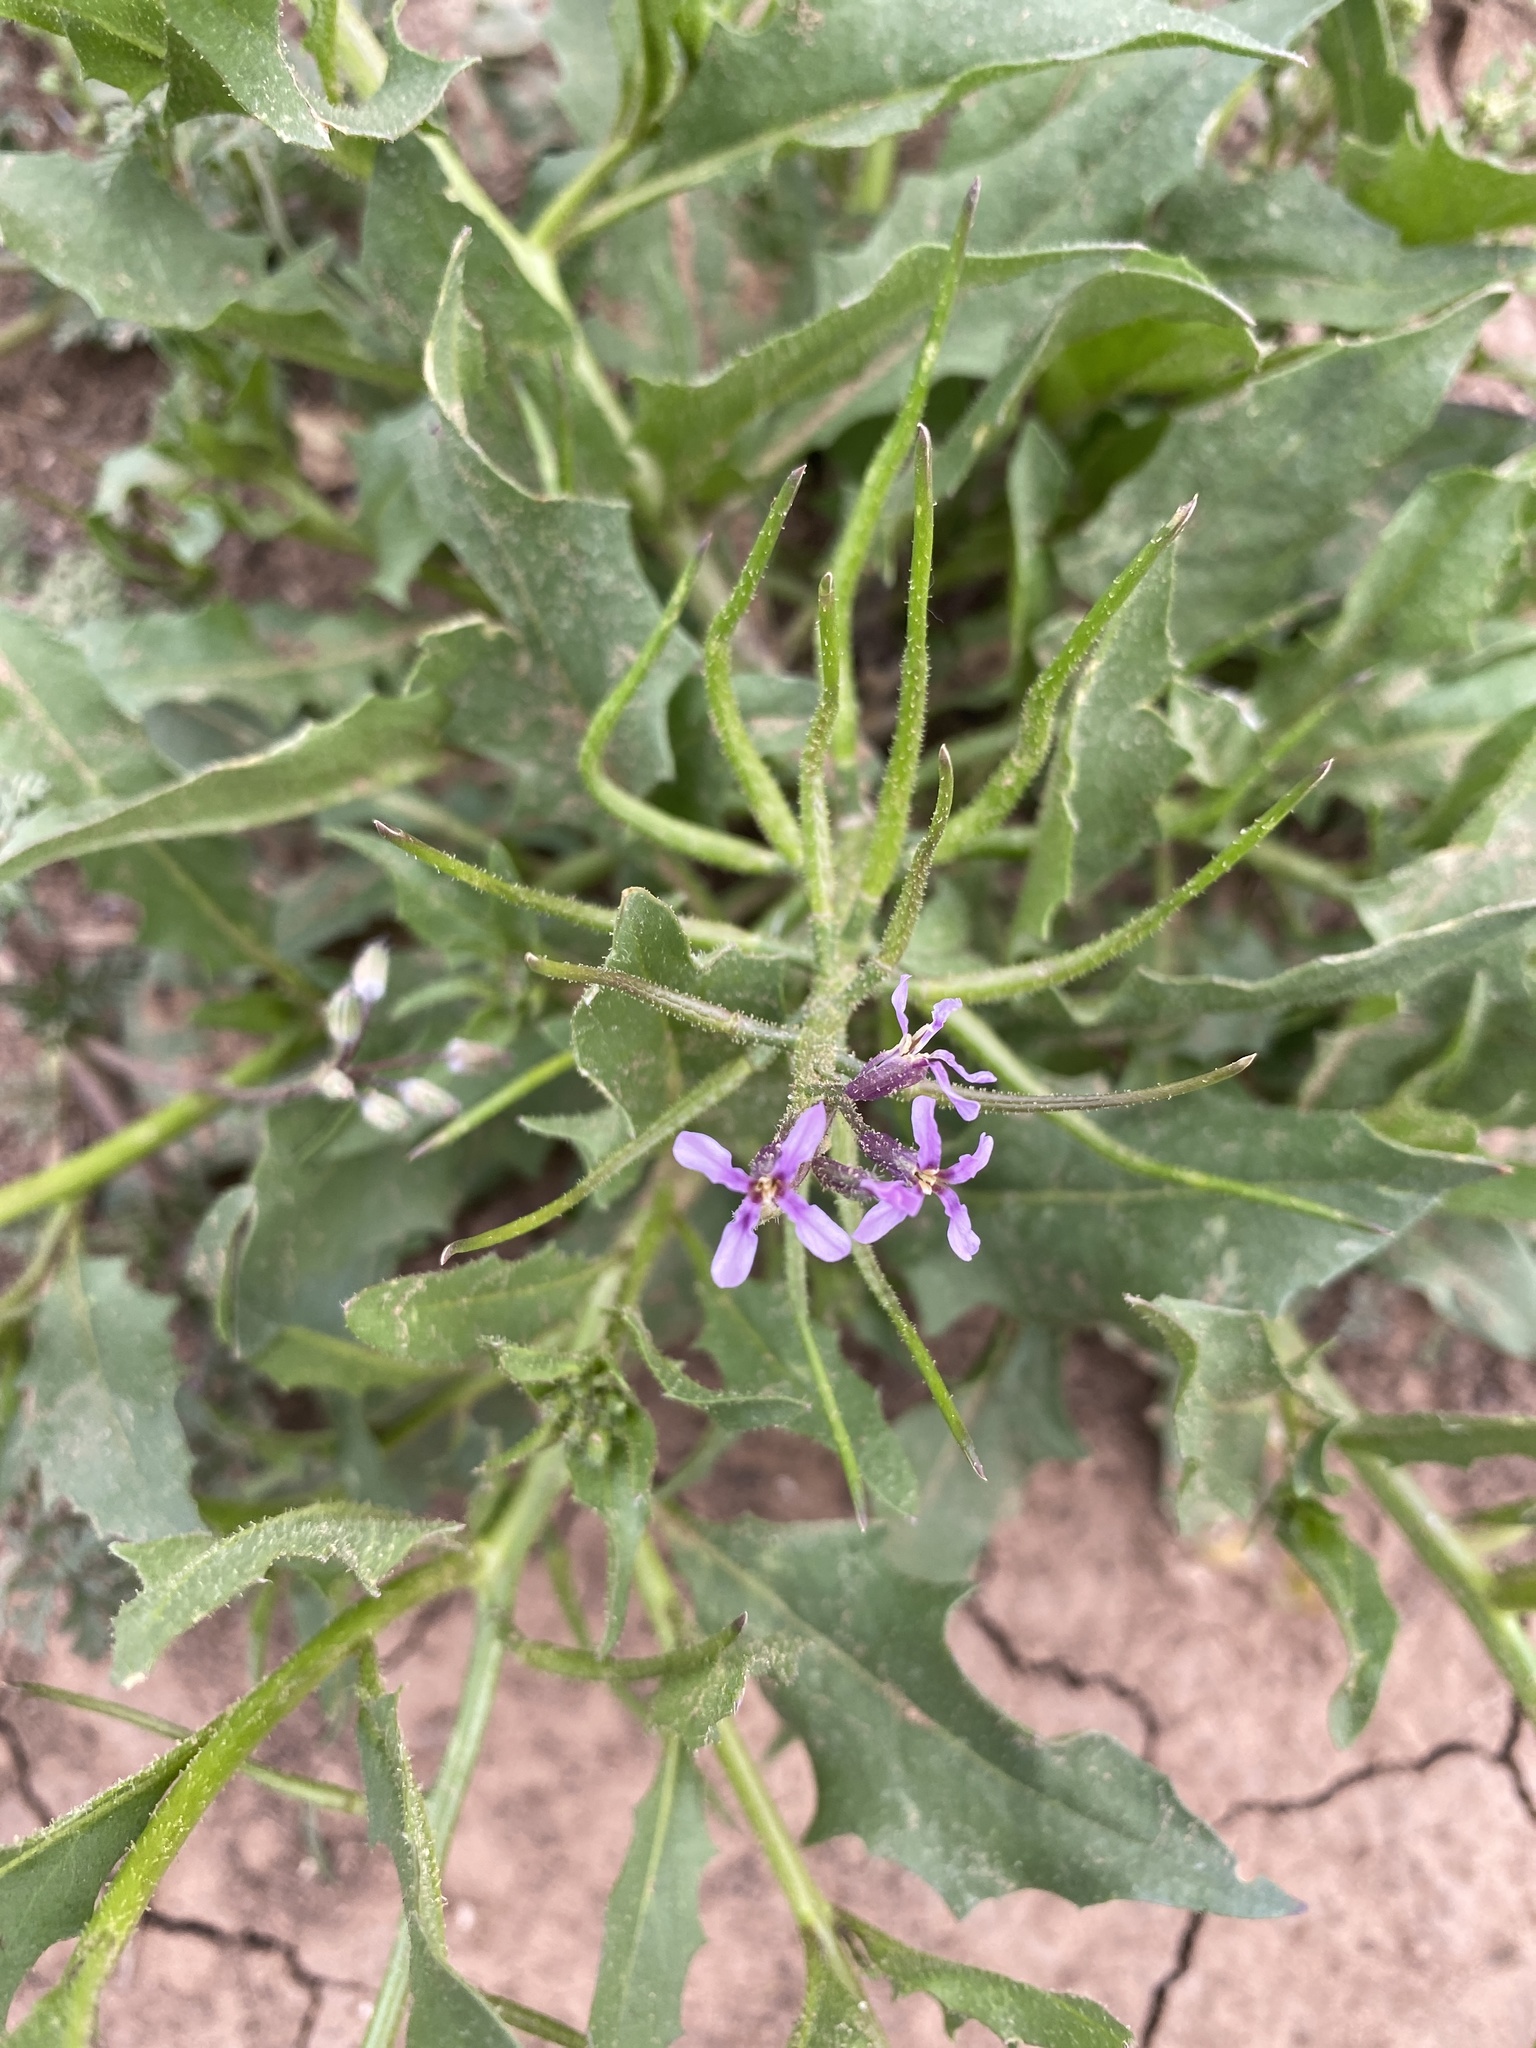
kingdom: Plantae
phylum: Tracheophyta
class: Magnoliopsida
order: Brassicales
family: Brassicaceae
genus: Chorispora
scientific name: Chorispora tenella
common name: Crossflower
